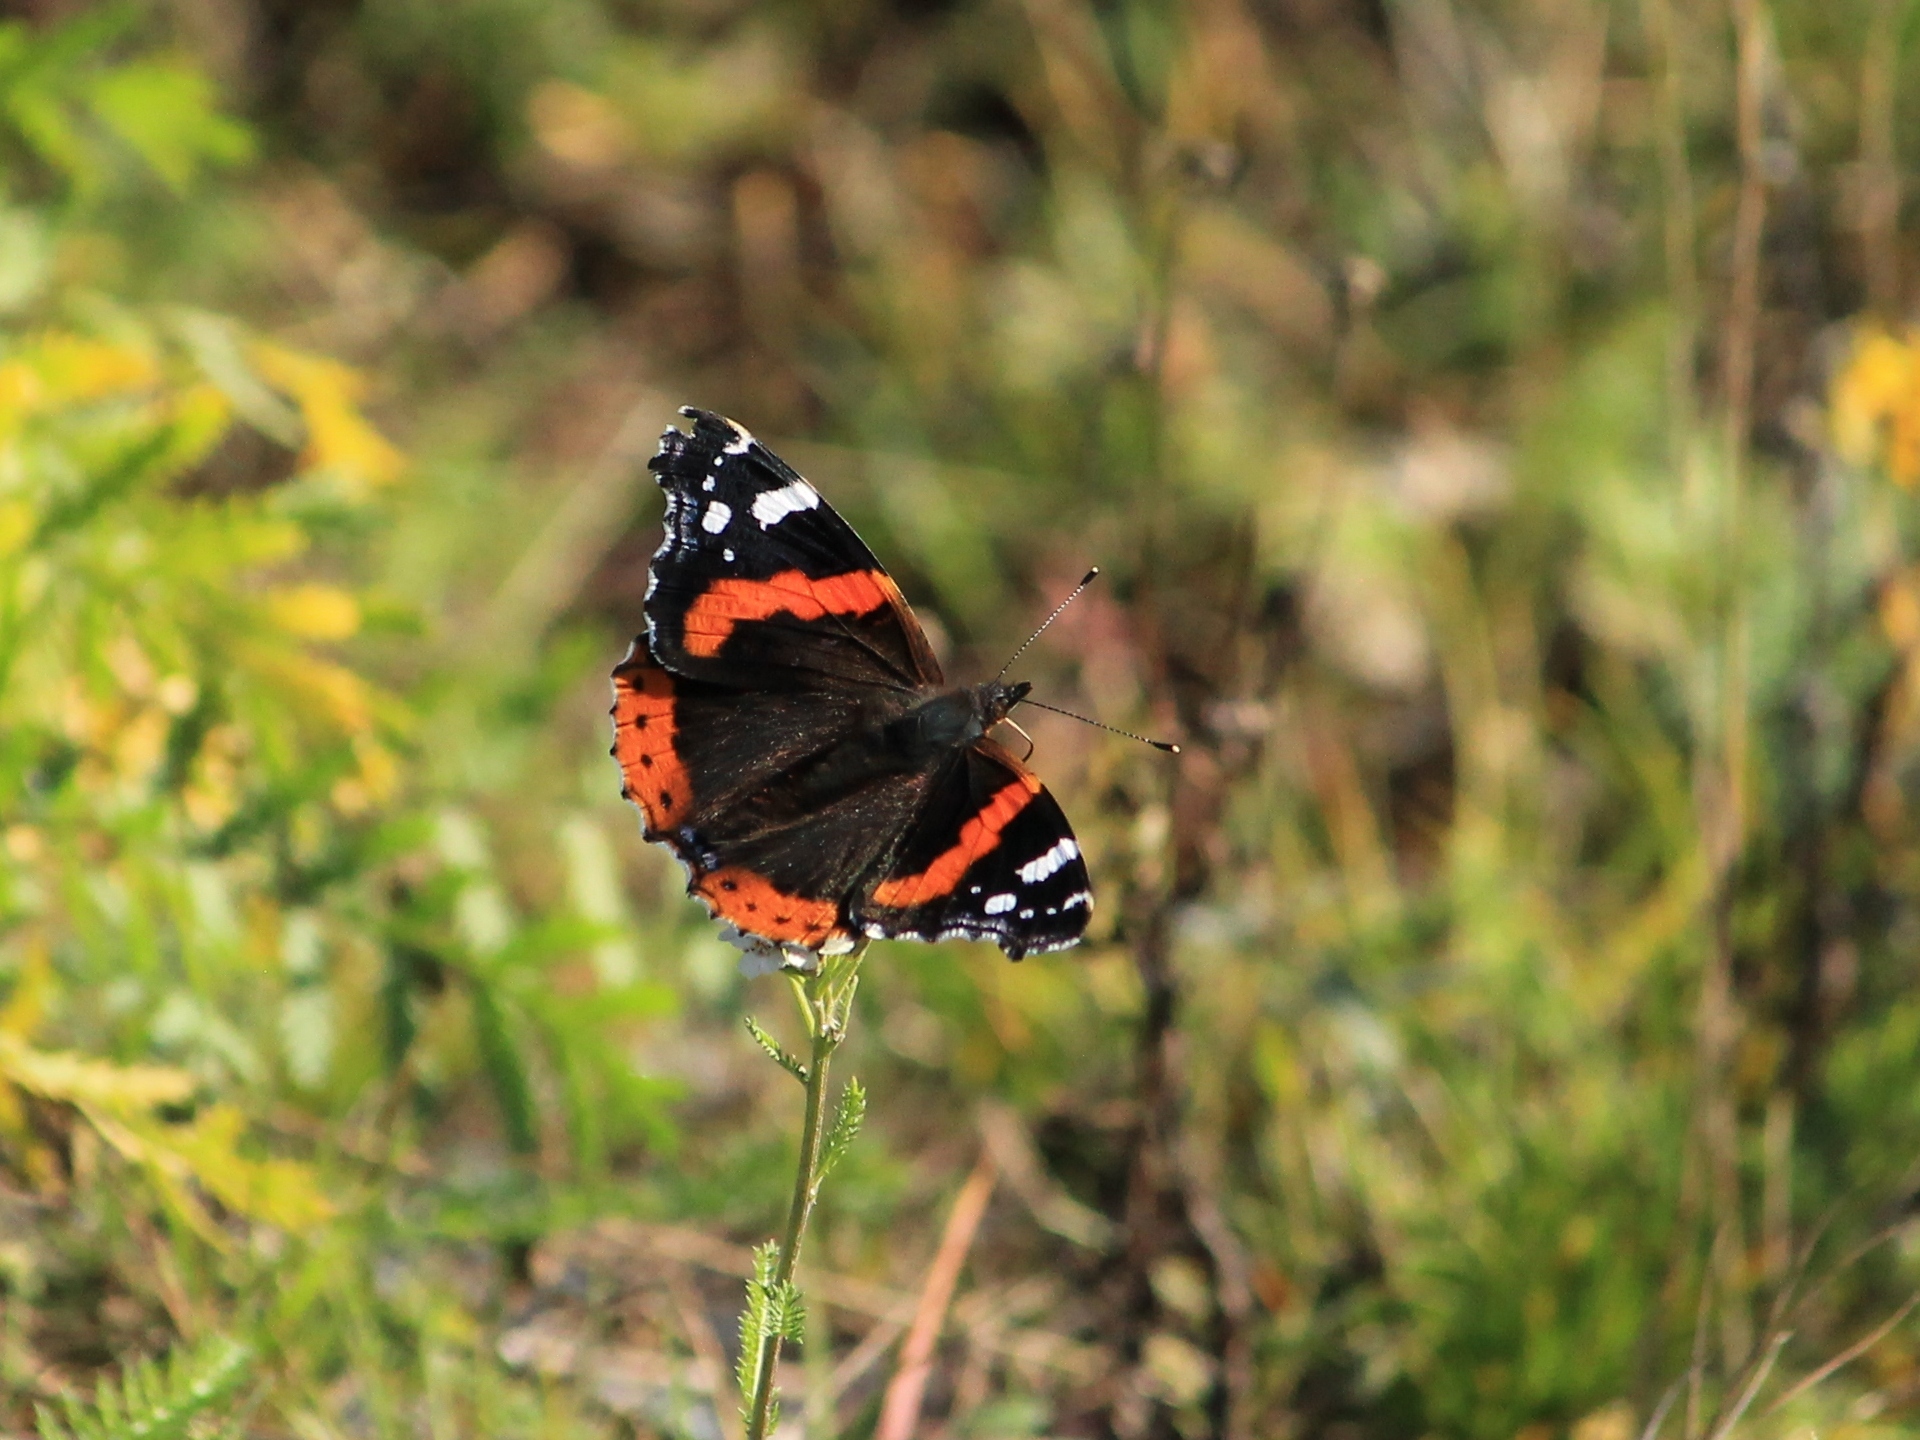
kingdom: Animalia
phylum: Arthropoda
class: Insecta
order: Lepidoptera
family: Nymphalidae
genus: Vanessa
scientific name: Vanessa atalanta
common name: Red admiral
